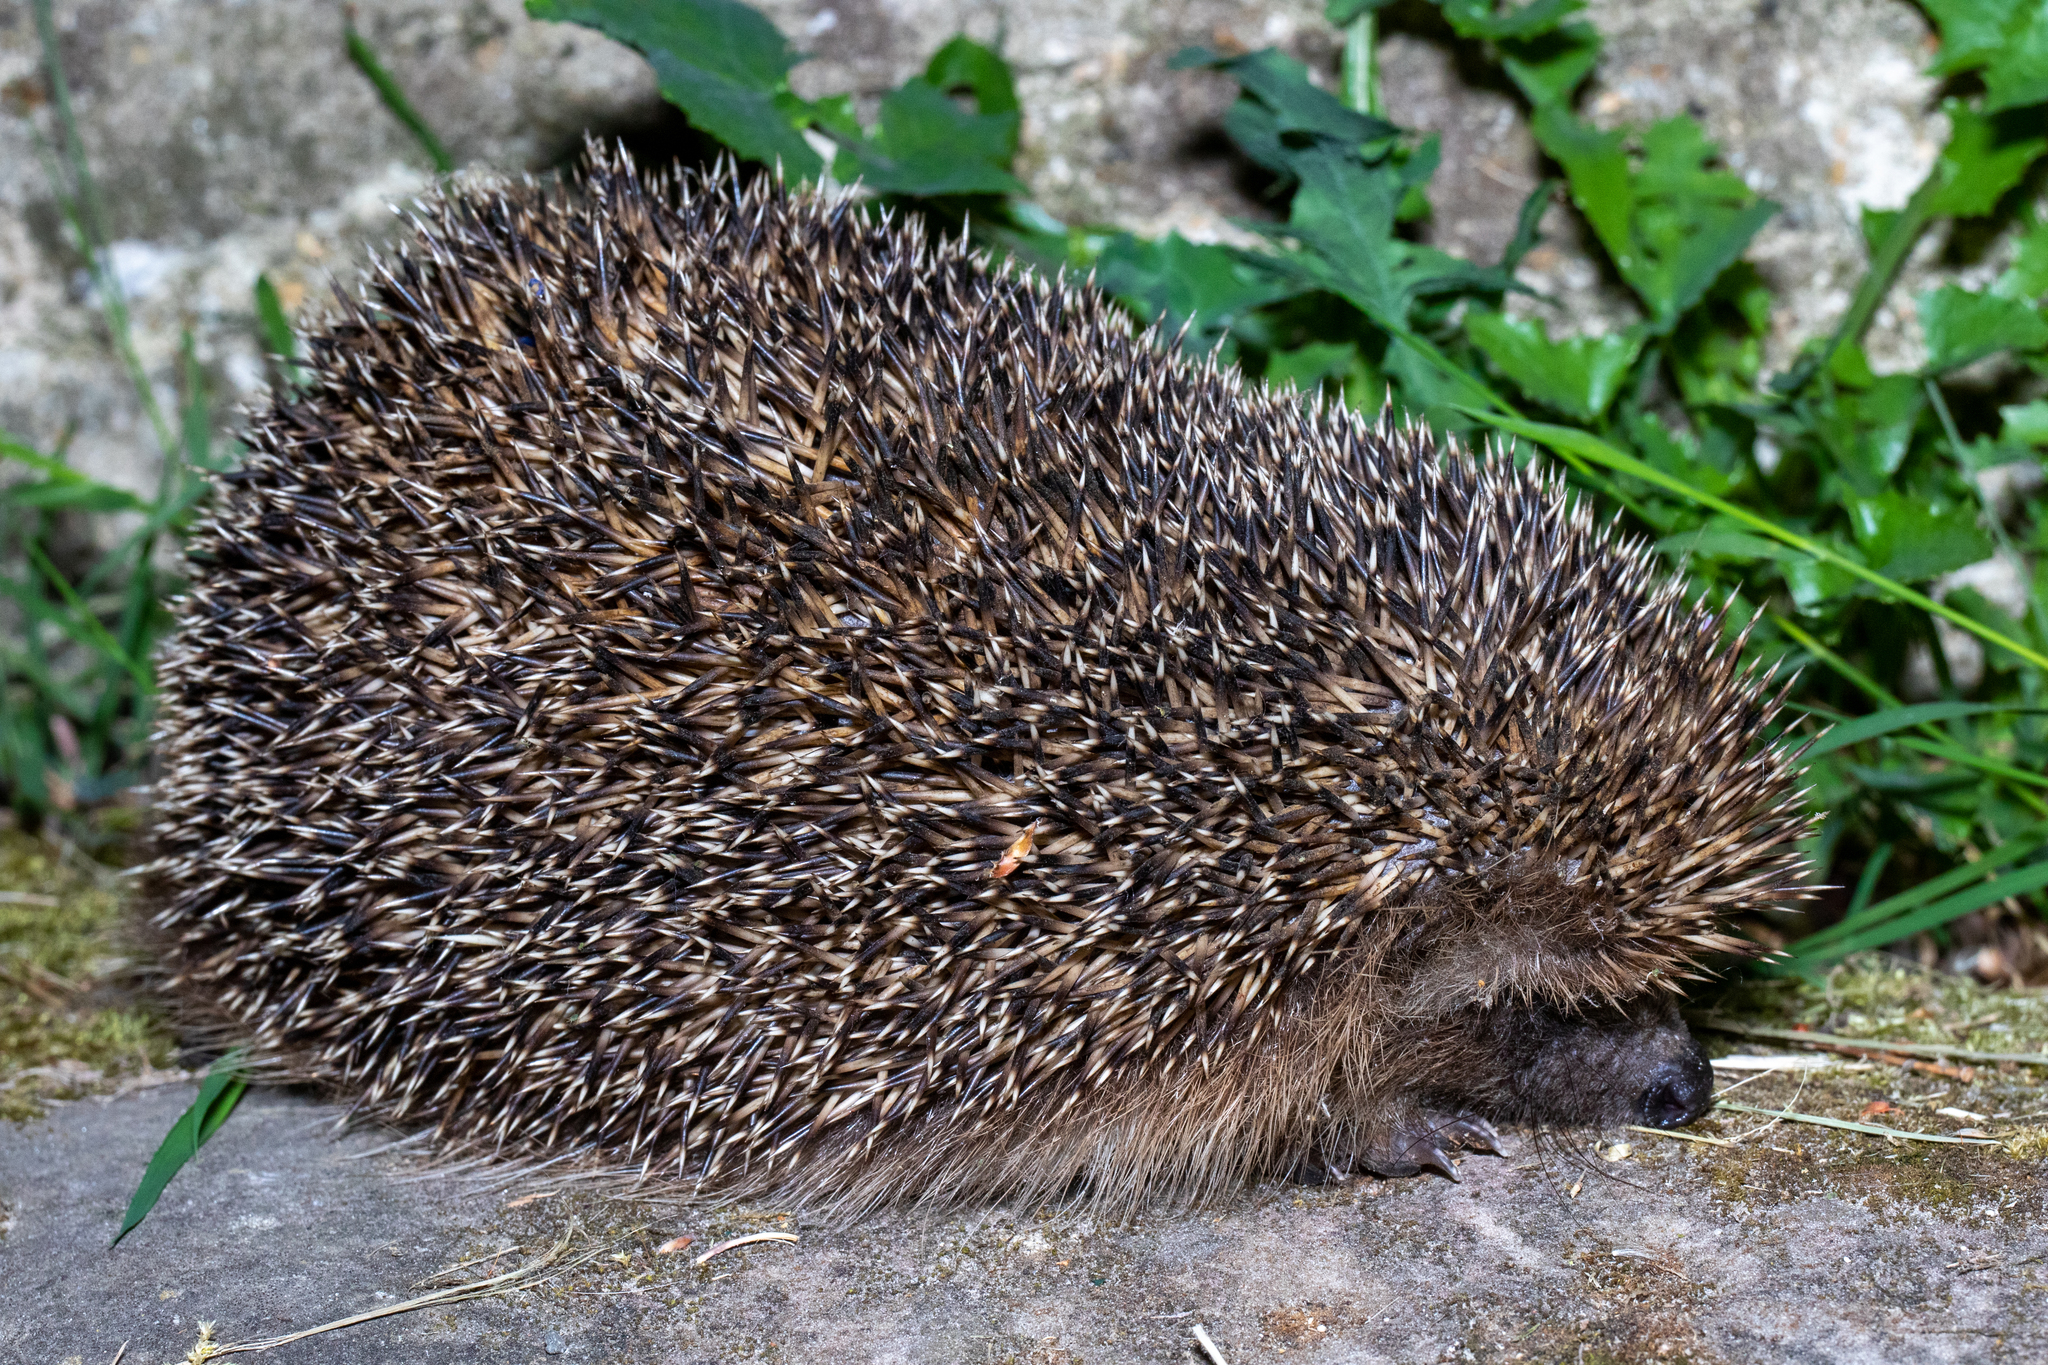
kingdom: Animalia
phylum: Chordata
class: Mammalia
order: Erinaceomorpha
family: Erinaceidae
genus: Erinaceus
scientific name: Erinaceus europaeus
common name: West european hedgehog
